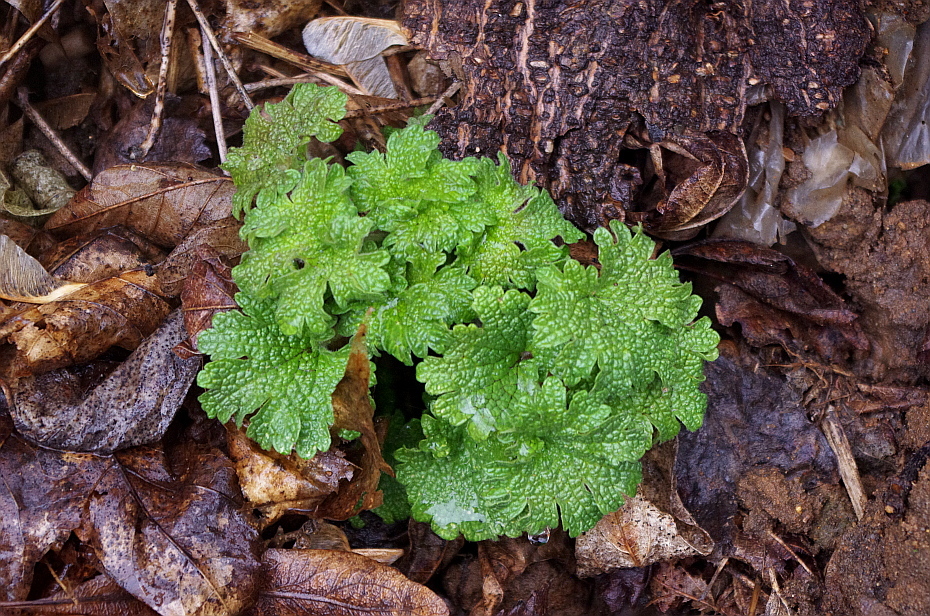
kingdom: Plantae
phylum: Tracheophyta
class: Magnoliopsida
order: Lamiales
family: Lamiaceae
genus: Leonurus
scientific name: Leonurus quinquelobatus
